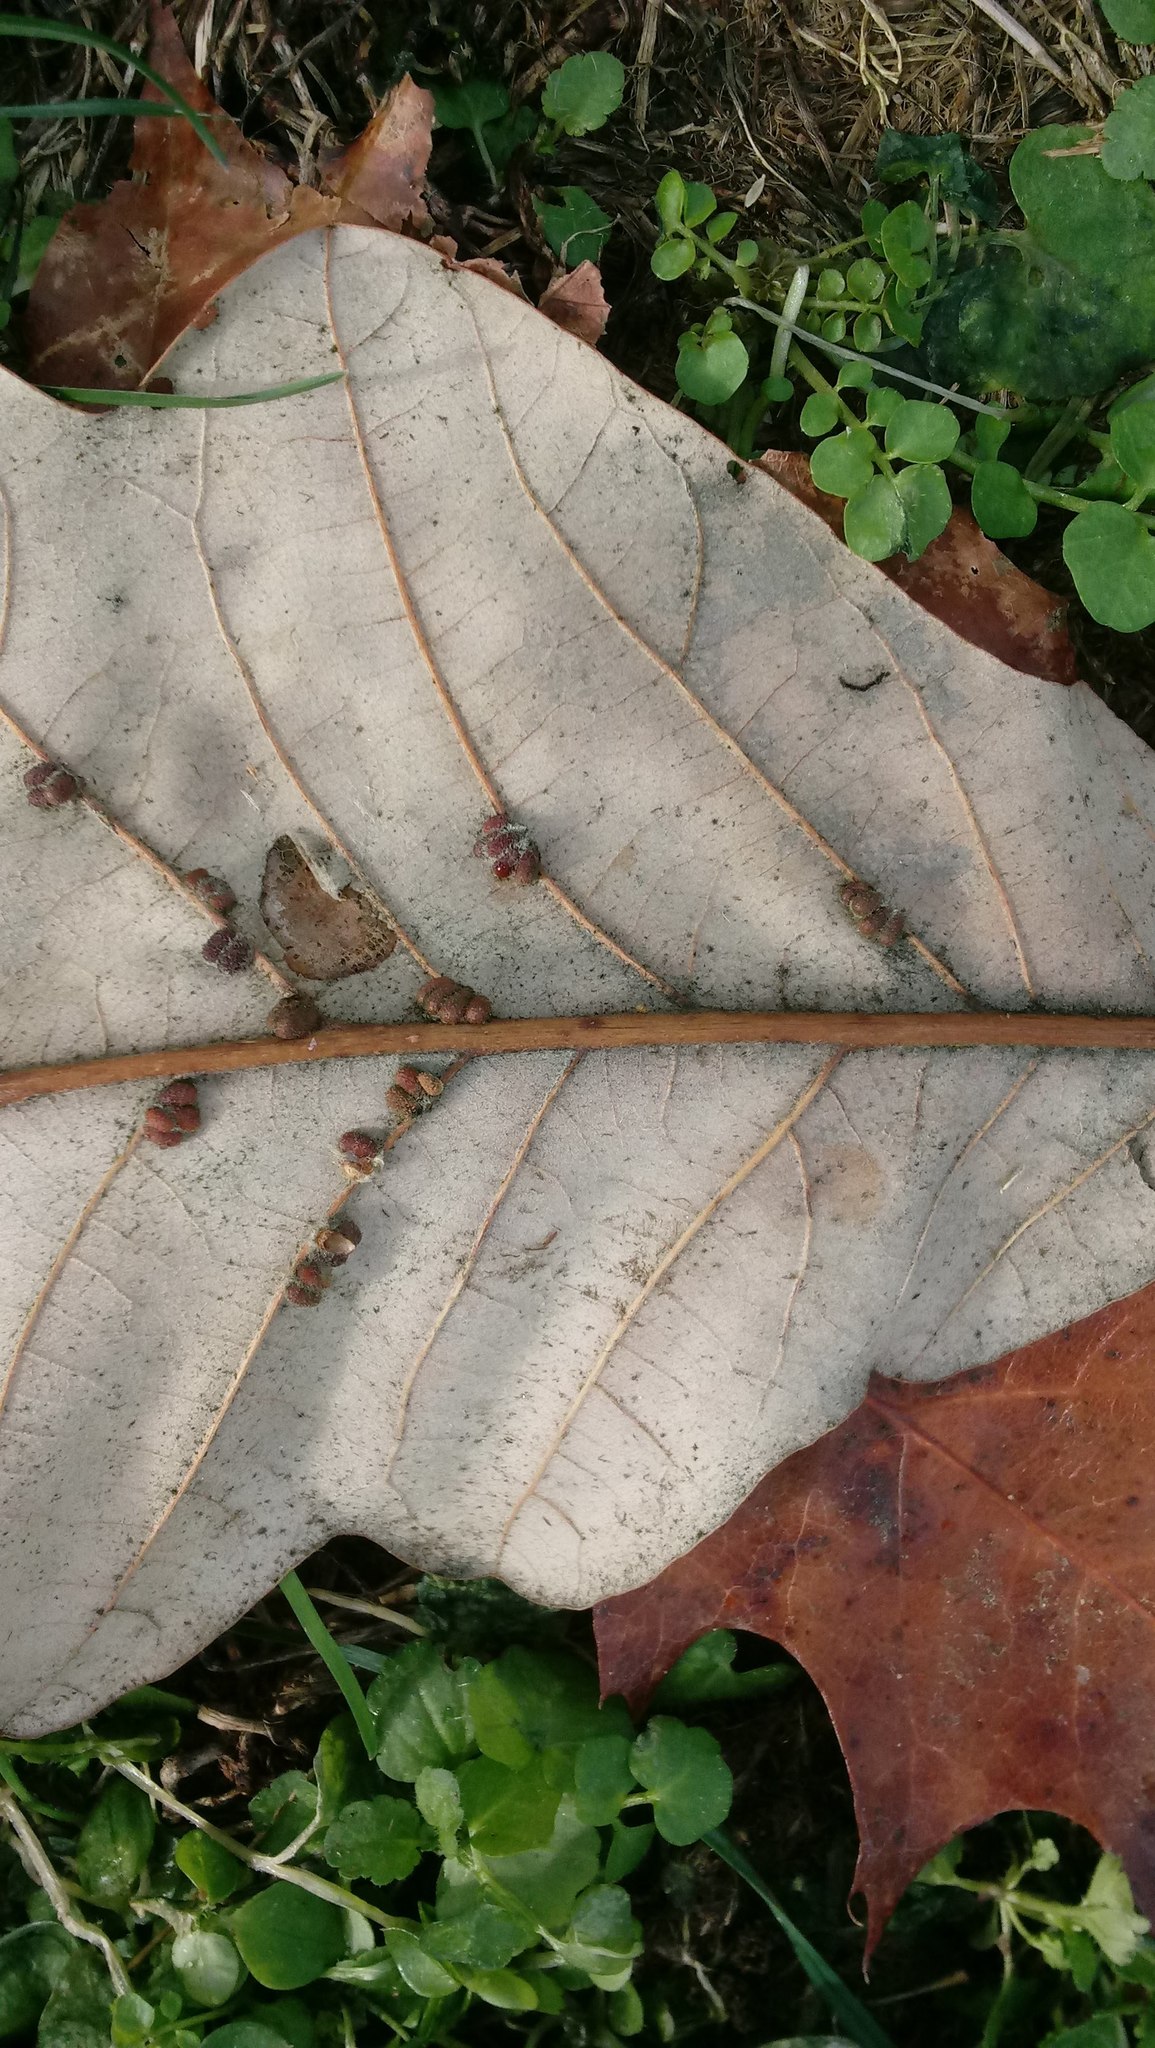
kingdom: Animalia
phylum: Arthropoda
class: Insecta
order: Hymenoptera
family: Cynipidae
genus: Andricus
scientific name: Andricus Druon ignotum
